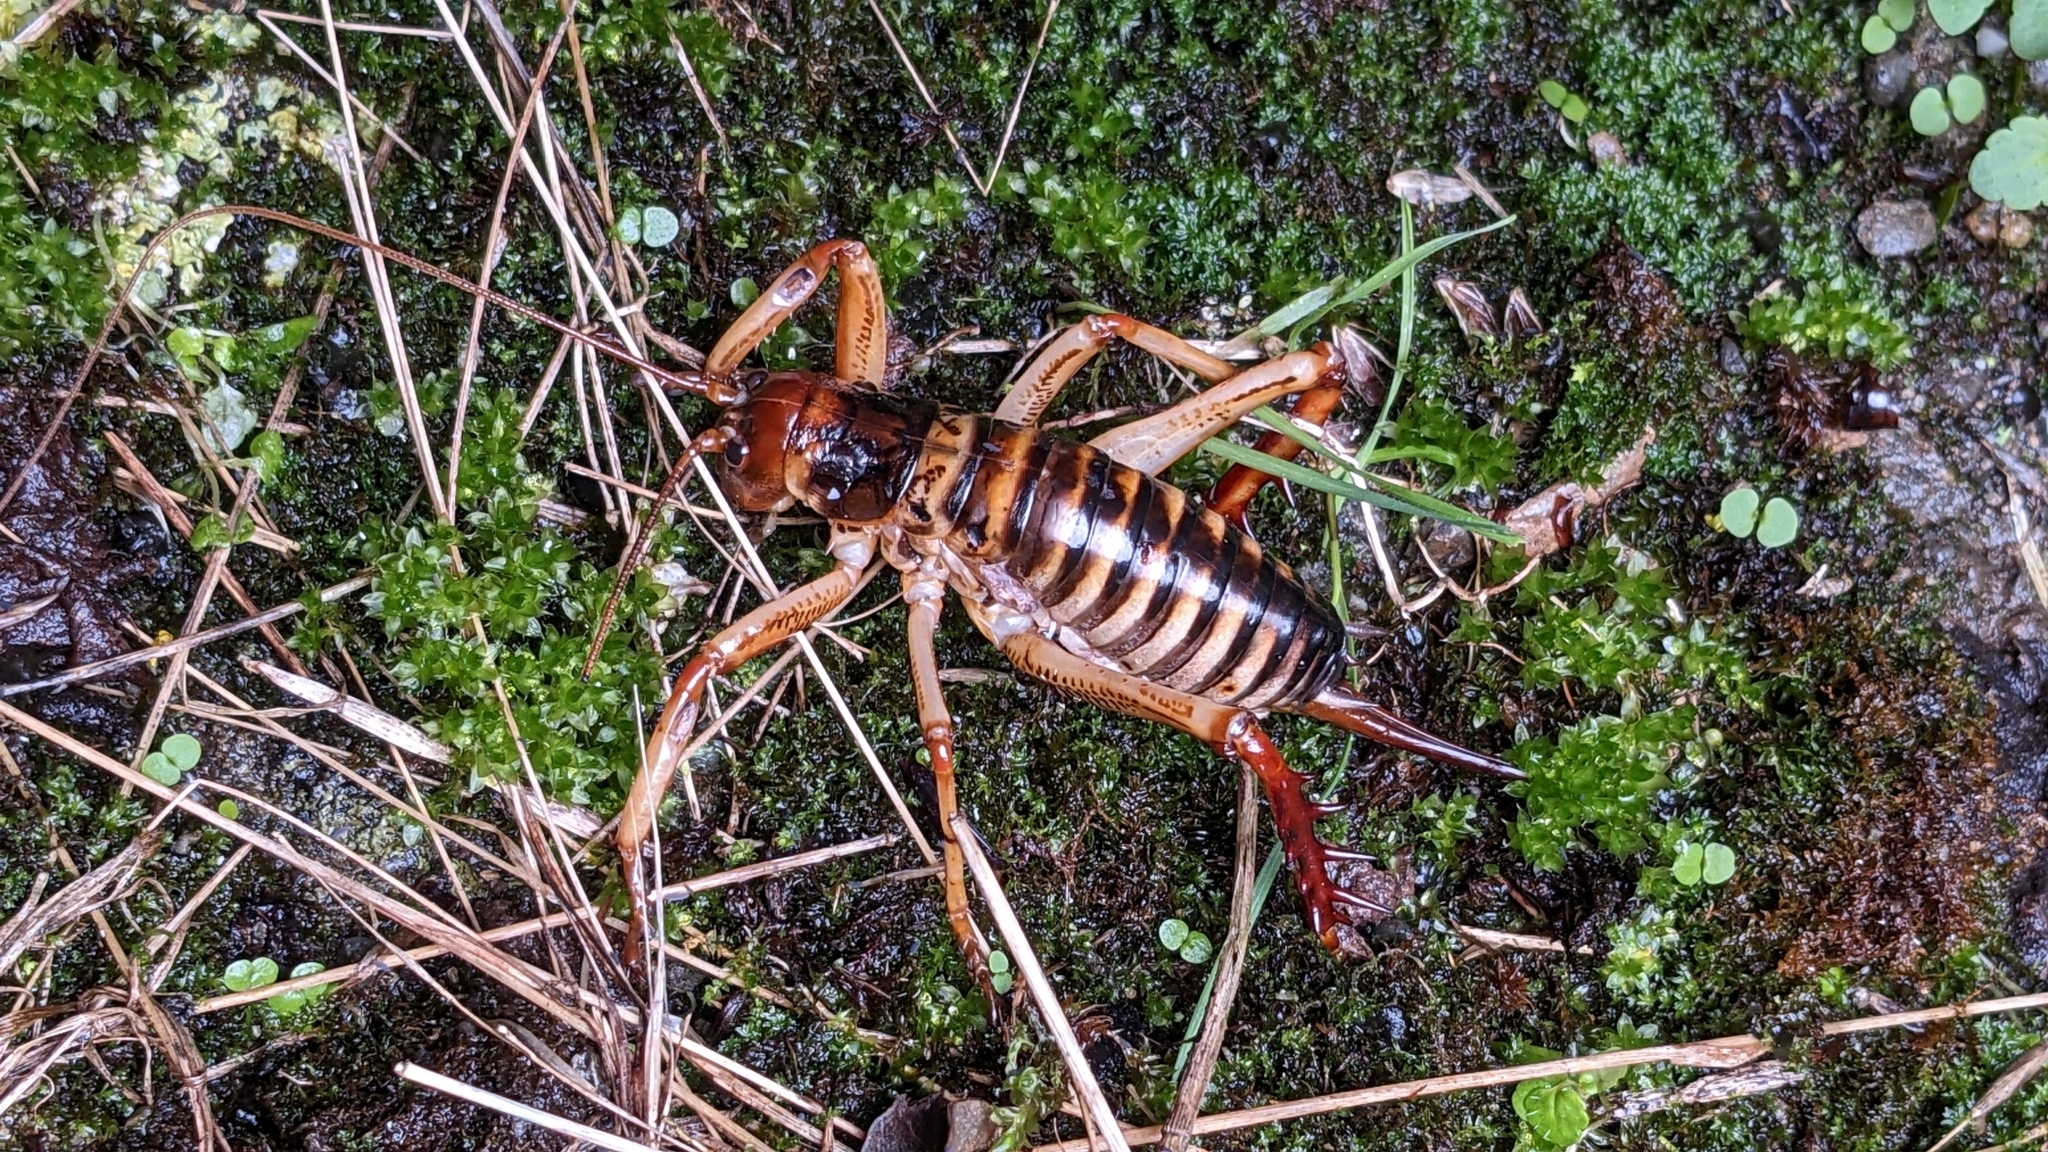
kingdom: Animalia
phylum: Arthropoda
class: Insecta
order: Orthoptera
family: Anostostomatidae
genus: Hemideina
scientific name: Hemideina crassidens
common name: Wellington tree weta
